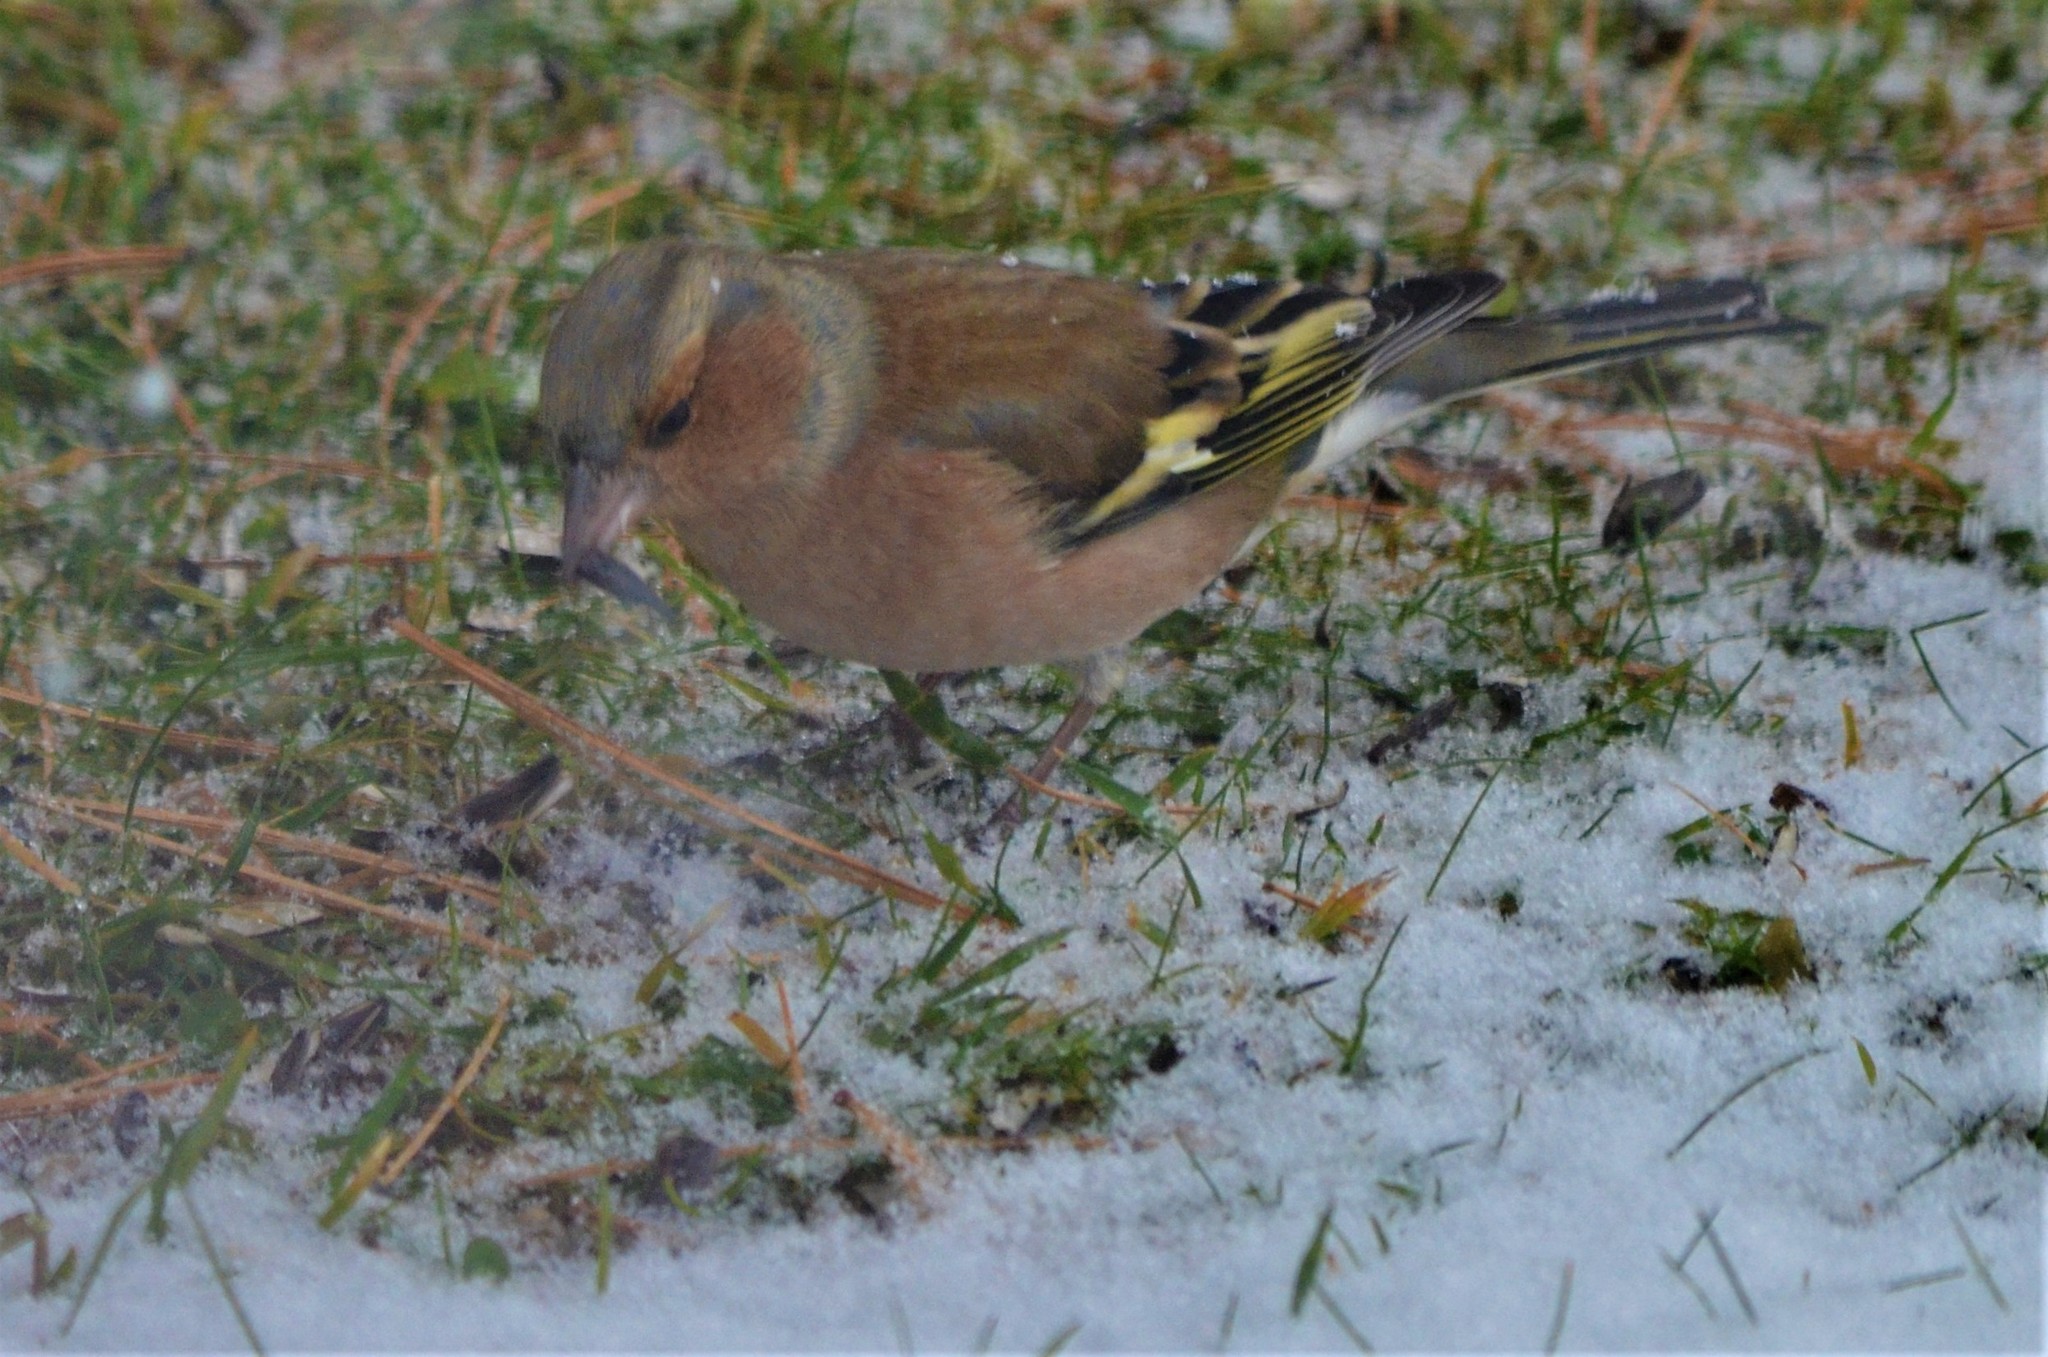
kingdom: Animalia
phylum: Chordata
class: Aves
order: Passeriformes
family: Fringillidae
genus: Fringilla
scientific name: Fringilla coelebs
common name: Common chaffinch
